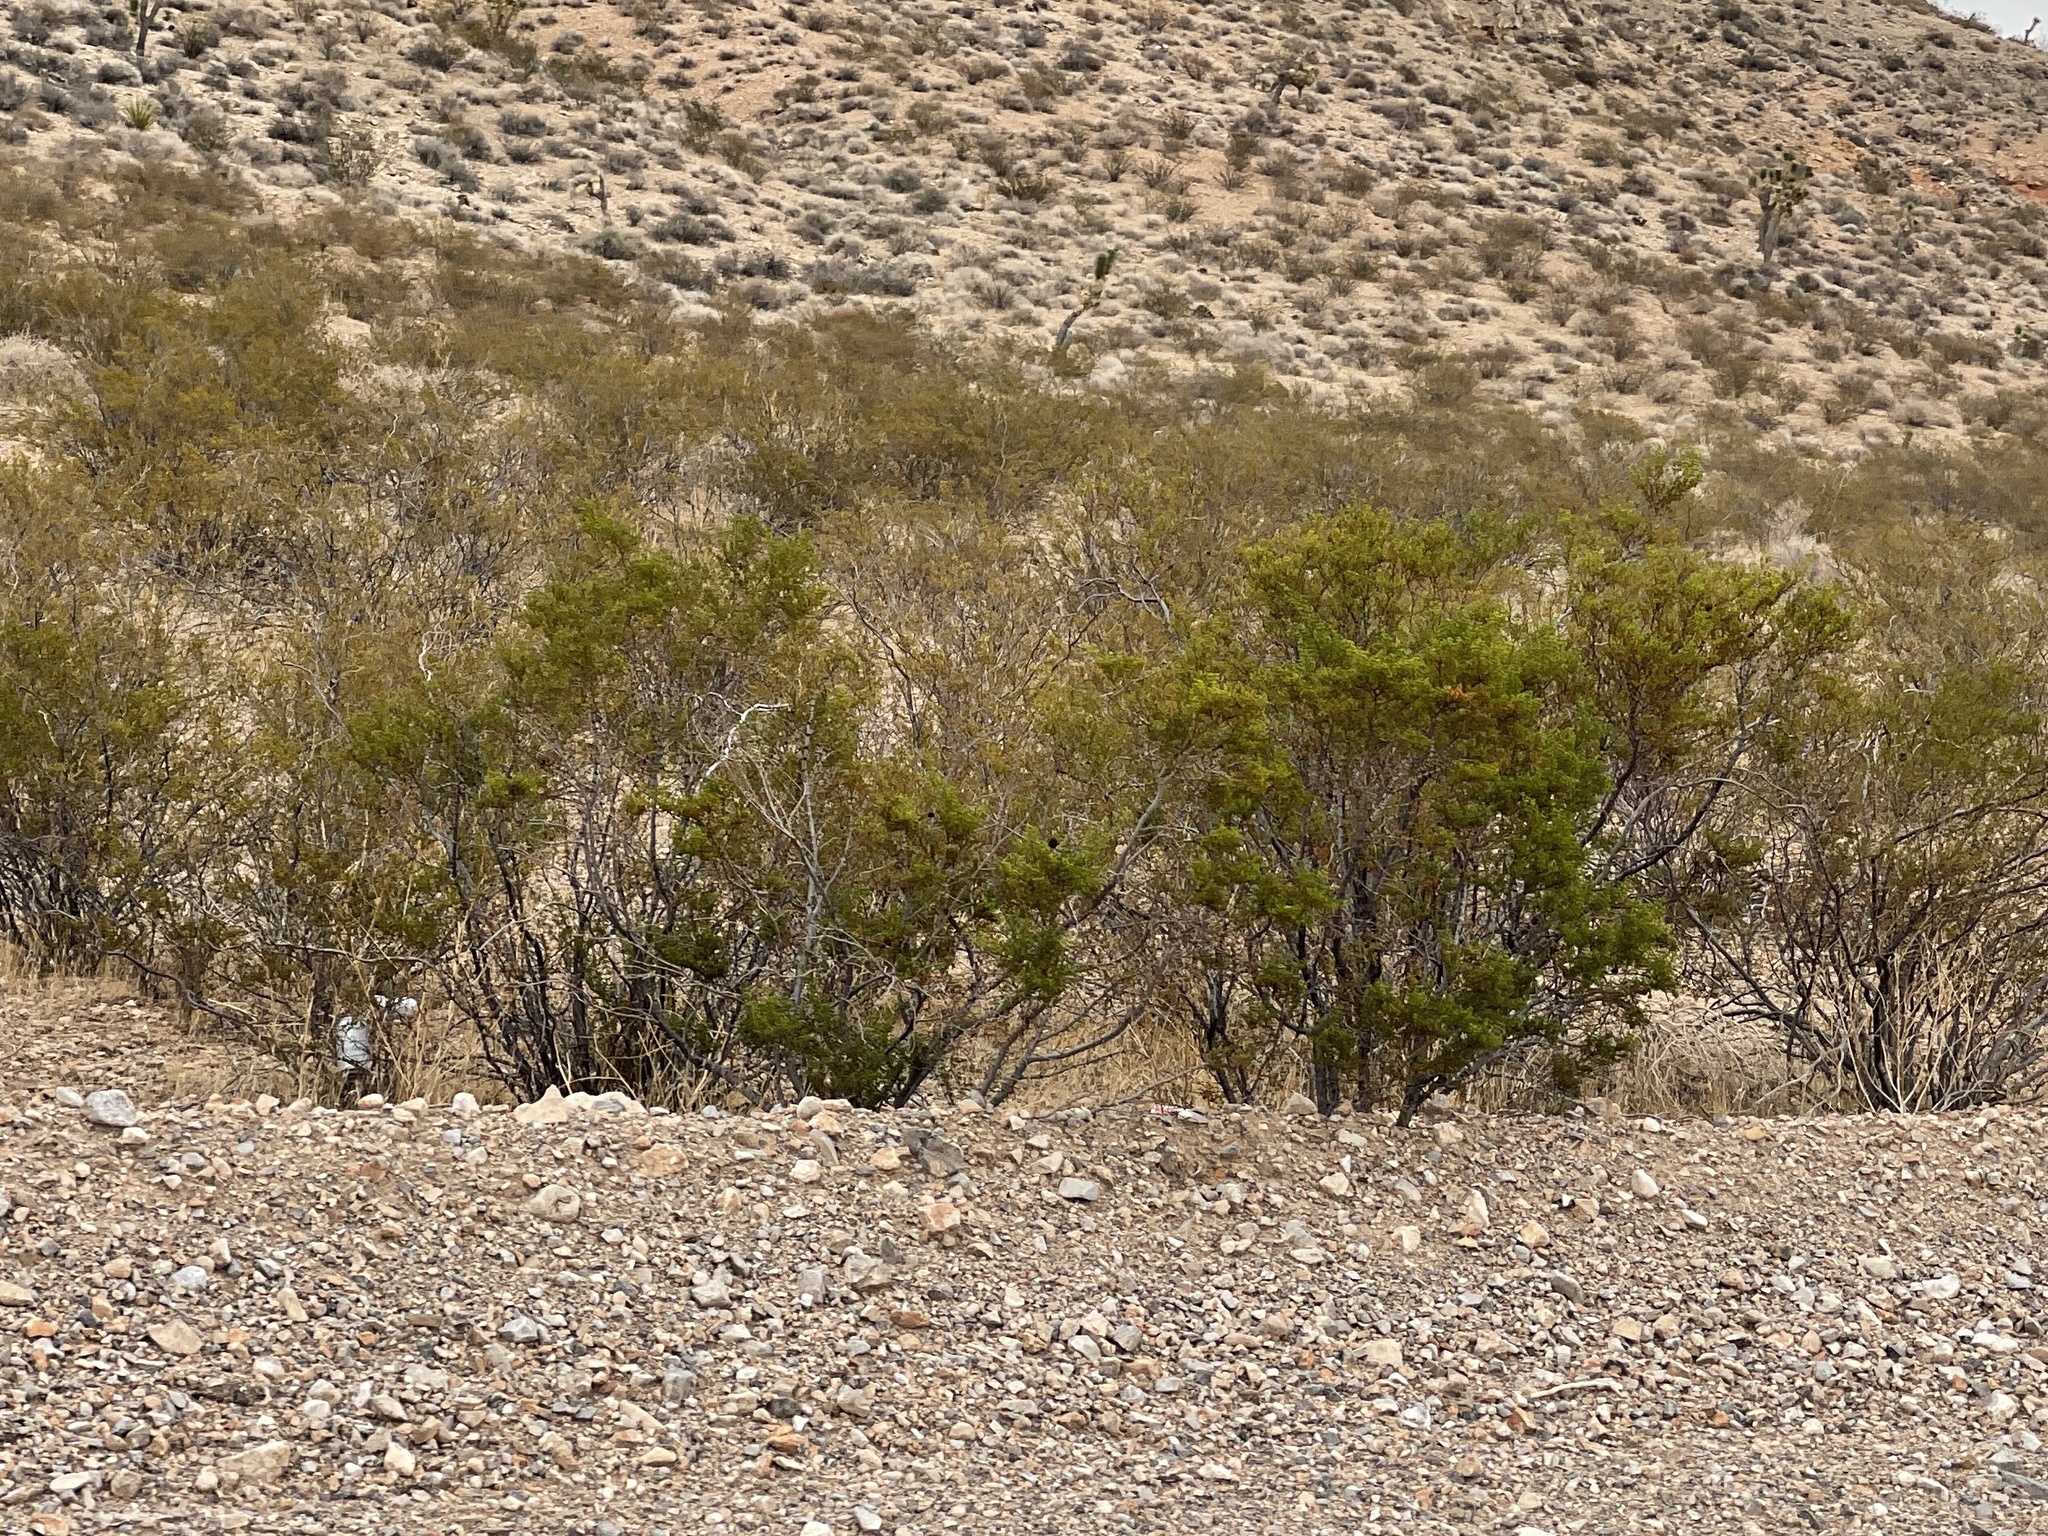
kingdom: Plantae
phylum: Tracheophyta
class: Magnoliopsida
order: Zygophyllales
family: Zygophyllaceae
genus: Larrea
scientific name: Larrea tridentata
